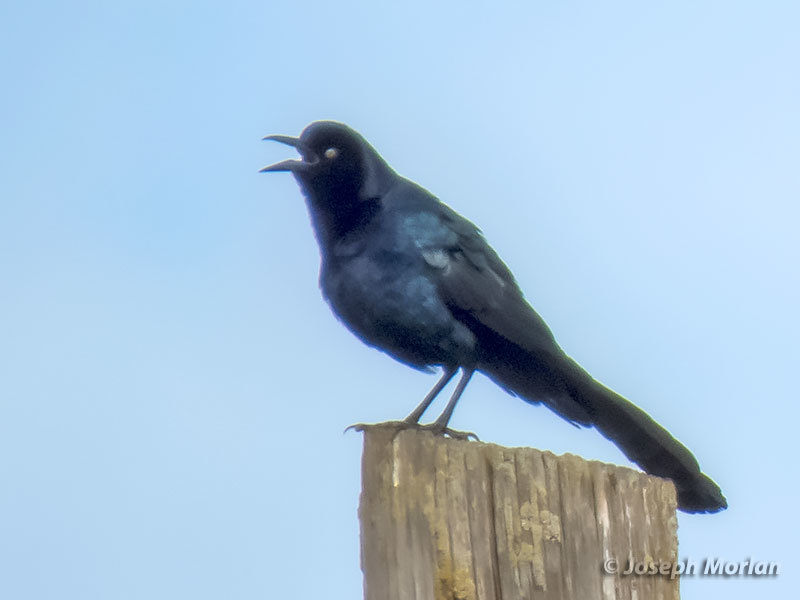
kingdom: Animalia
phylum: Chordata
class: Aves
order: Passeriformes
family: Icteridae
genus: Quiscalus
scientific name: Quiscalus mexicanus
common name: Great-tailed grackle
